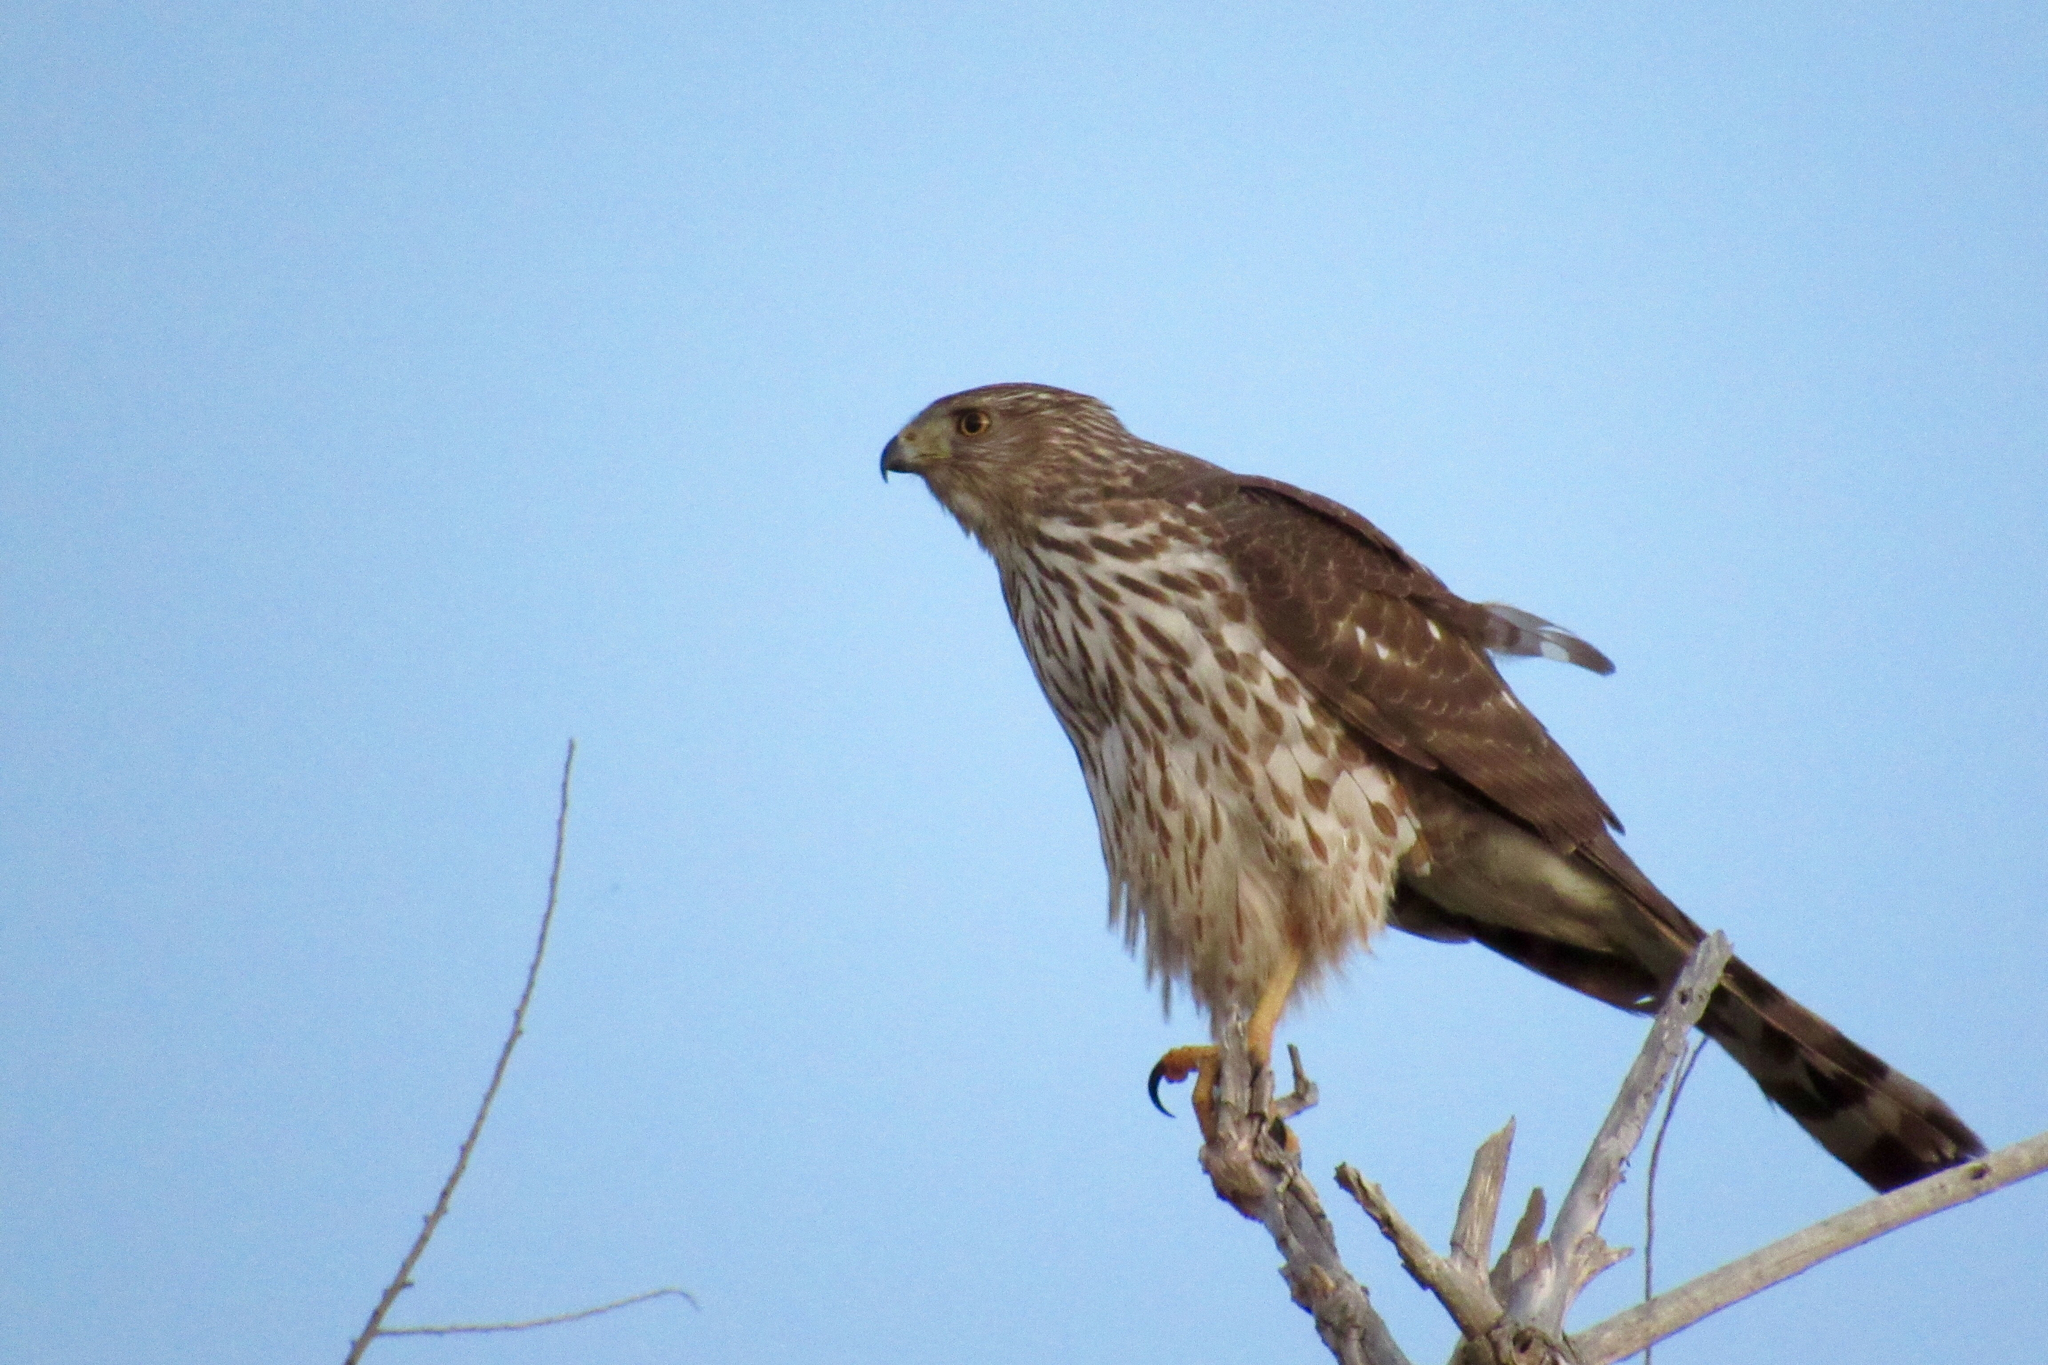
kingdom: Animalia
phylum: Chordata
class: Aves
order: Accipitriformes
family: Accipitridae
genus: Accipiter
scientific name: Accipiter cooperii
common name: Cooper's hawk
